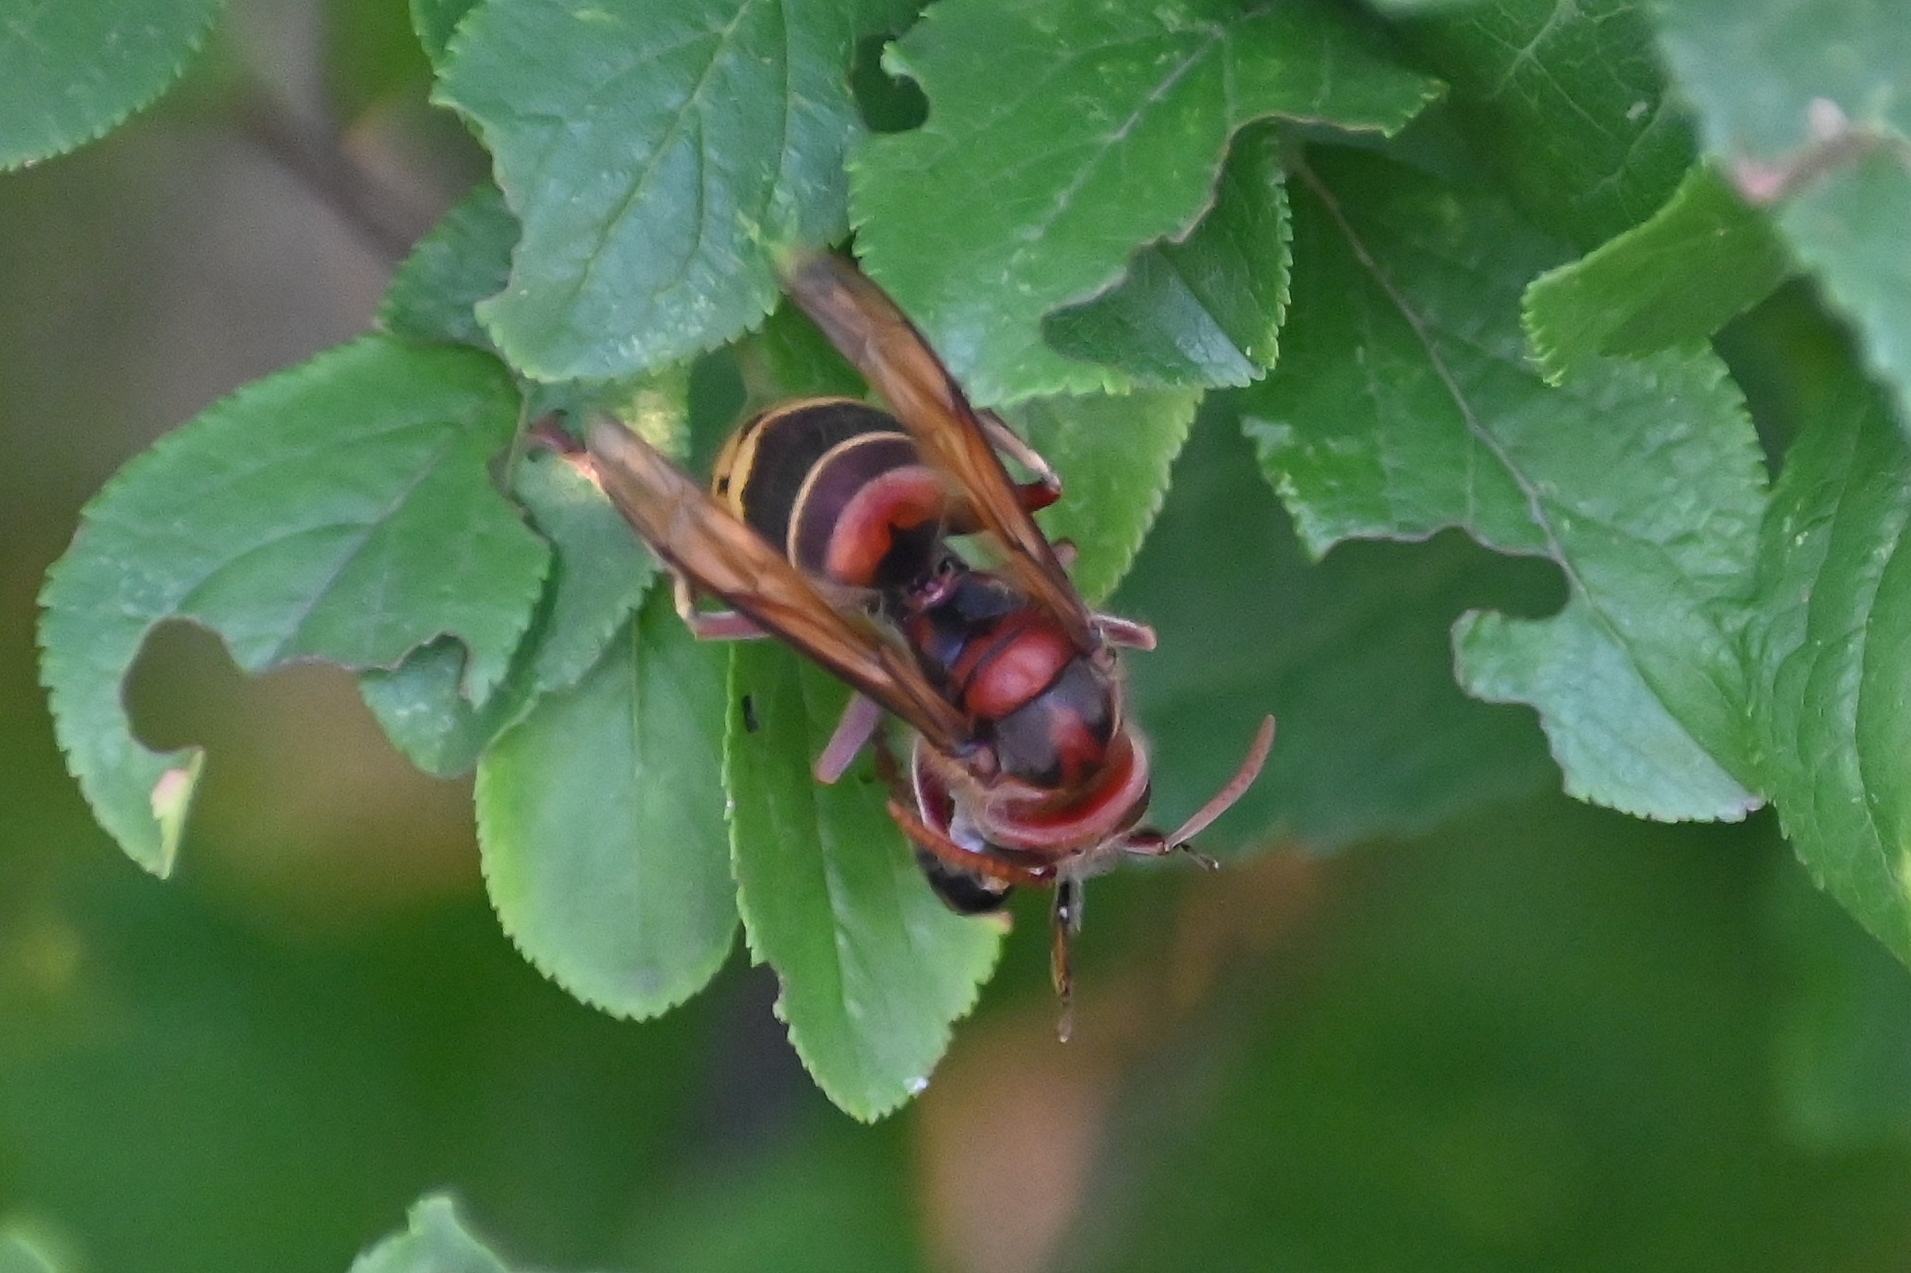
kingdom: Animalia
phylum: Arthropoda
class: Insecta
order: Hymenoptera
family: Vespidae
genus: Vespa
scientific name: Vespa crabro
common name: Hornet
